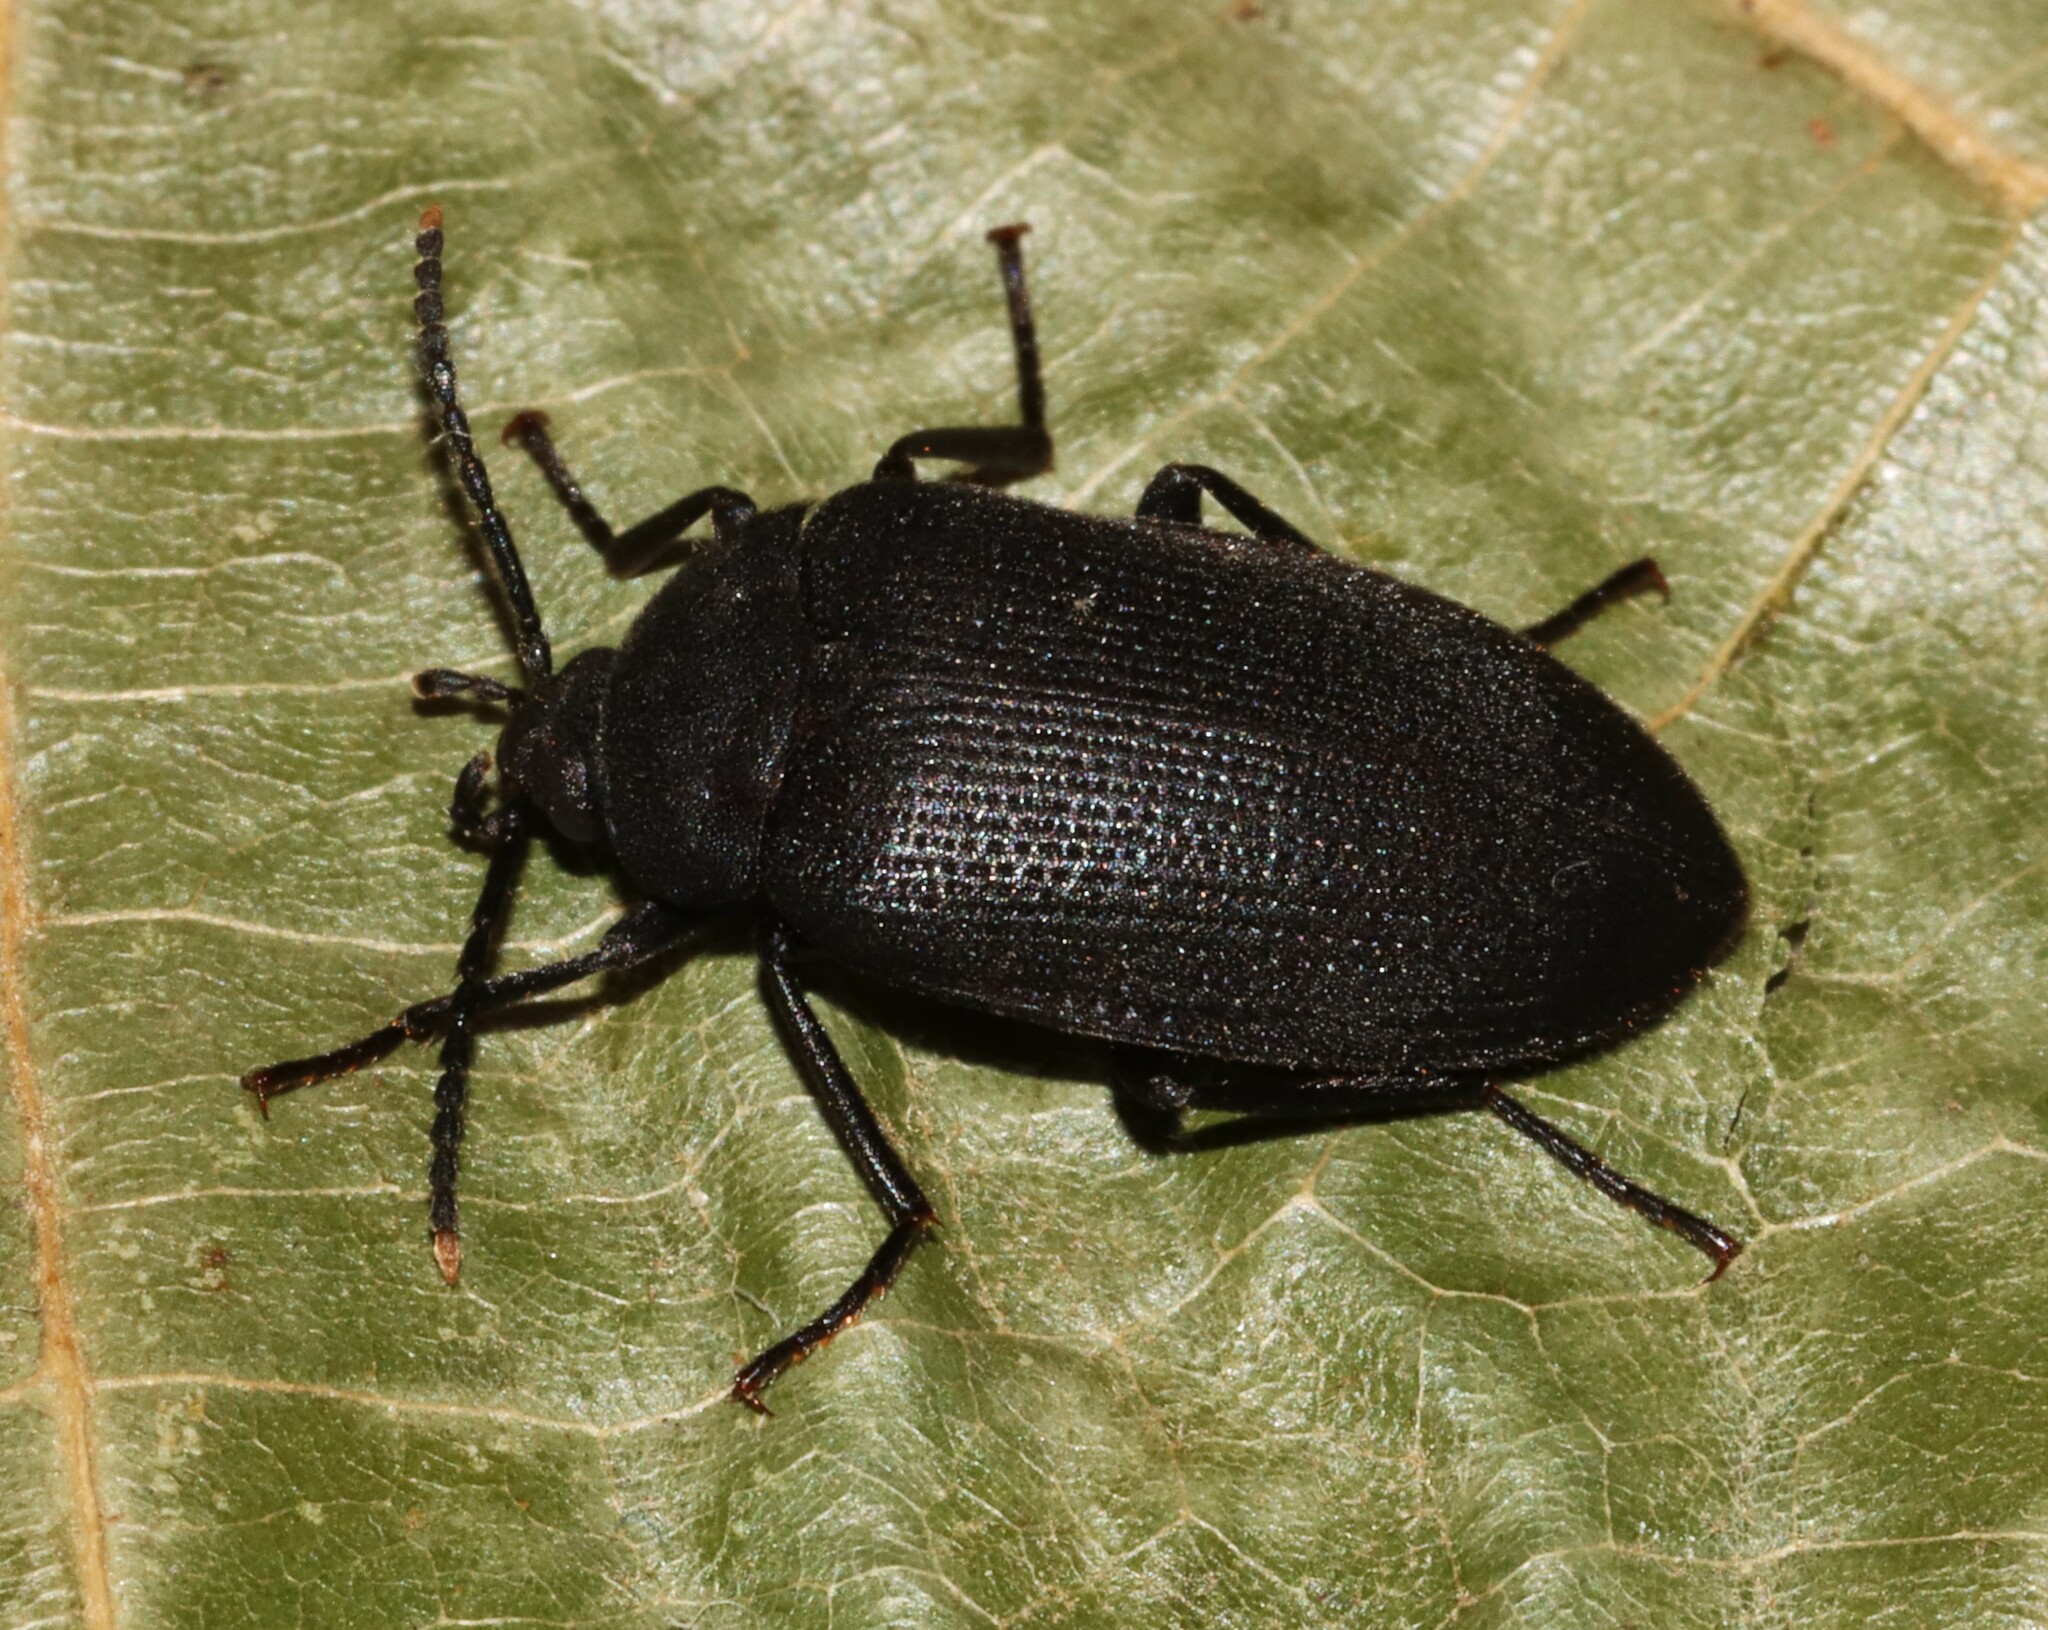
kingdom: Animalia
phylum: Arthropoda
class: Insecta
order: Coleoptera
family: Tetratomidae
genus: Penthe
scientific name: Penthe pimelia
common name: Velvety bark beetle
